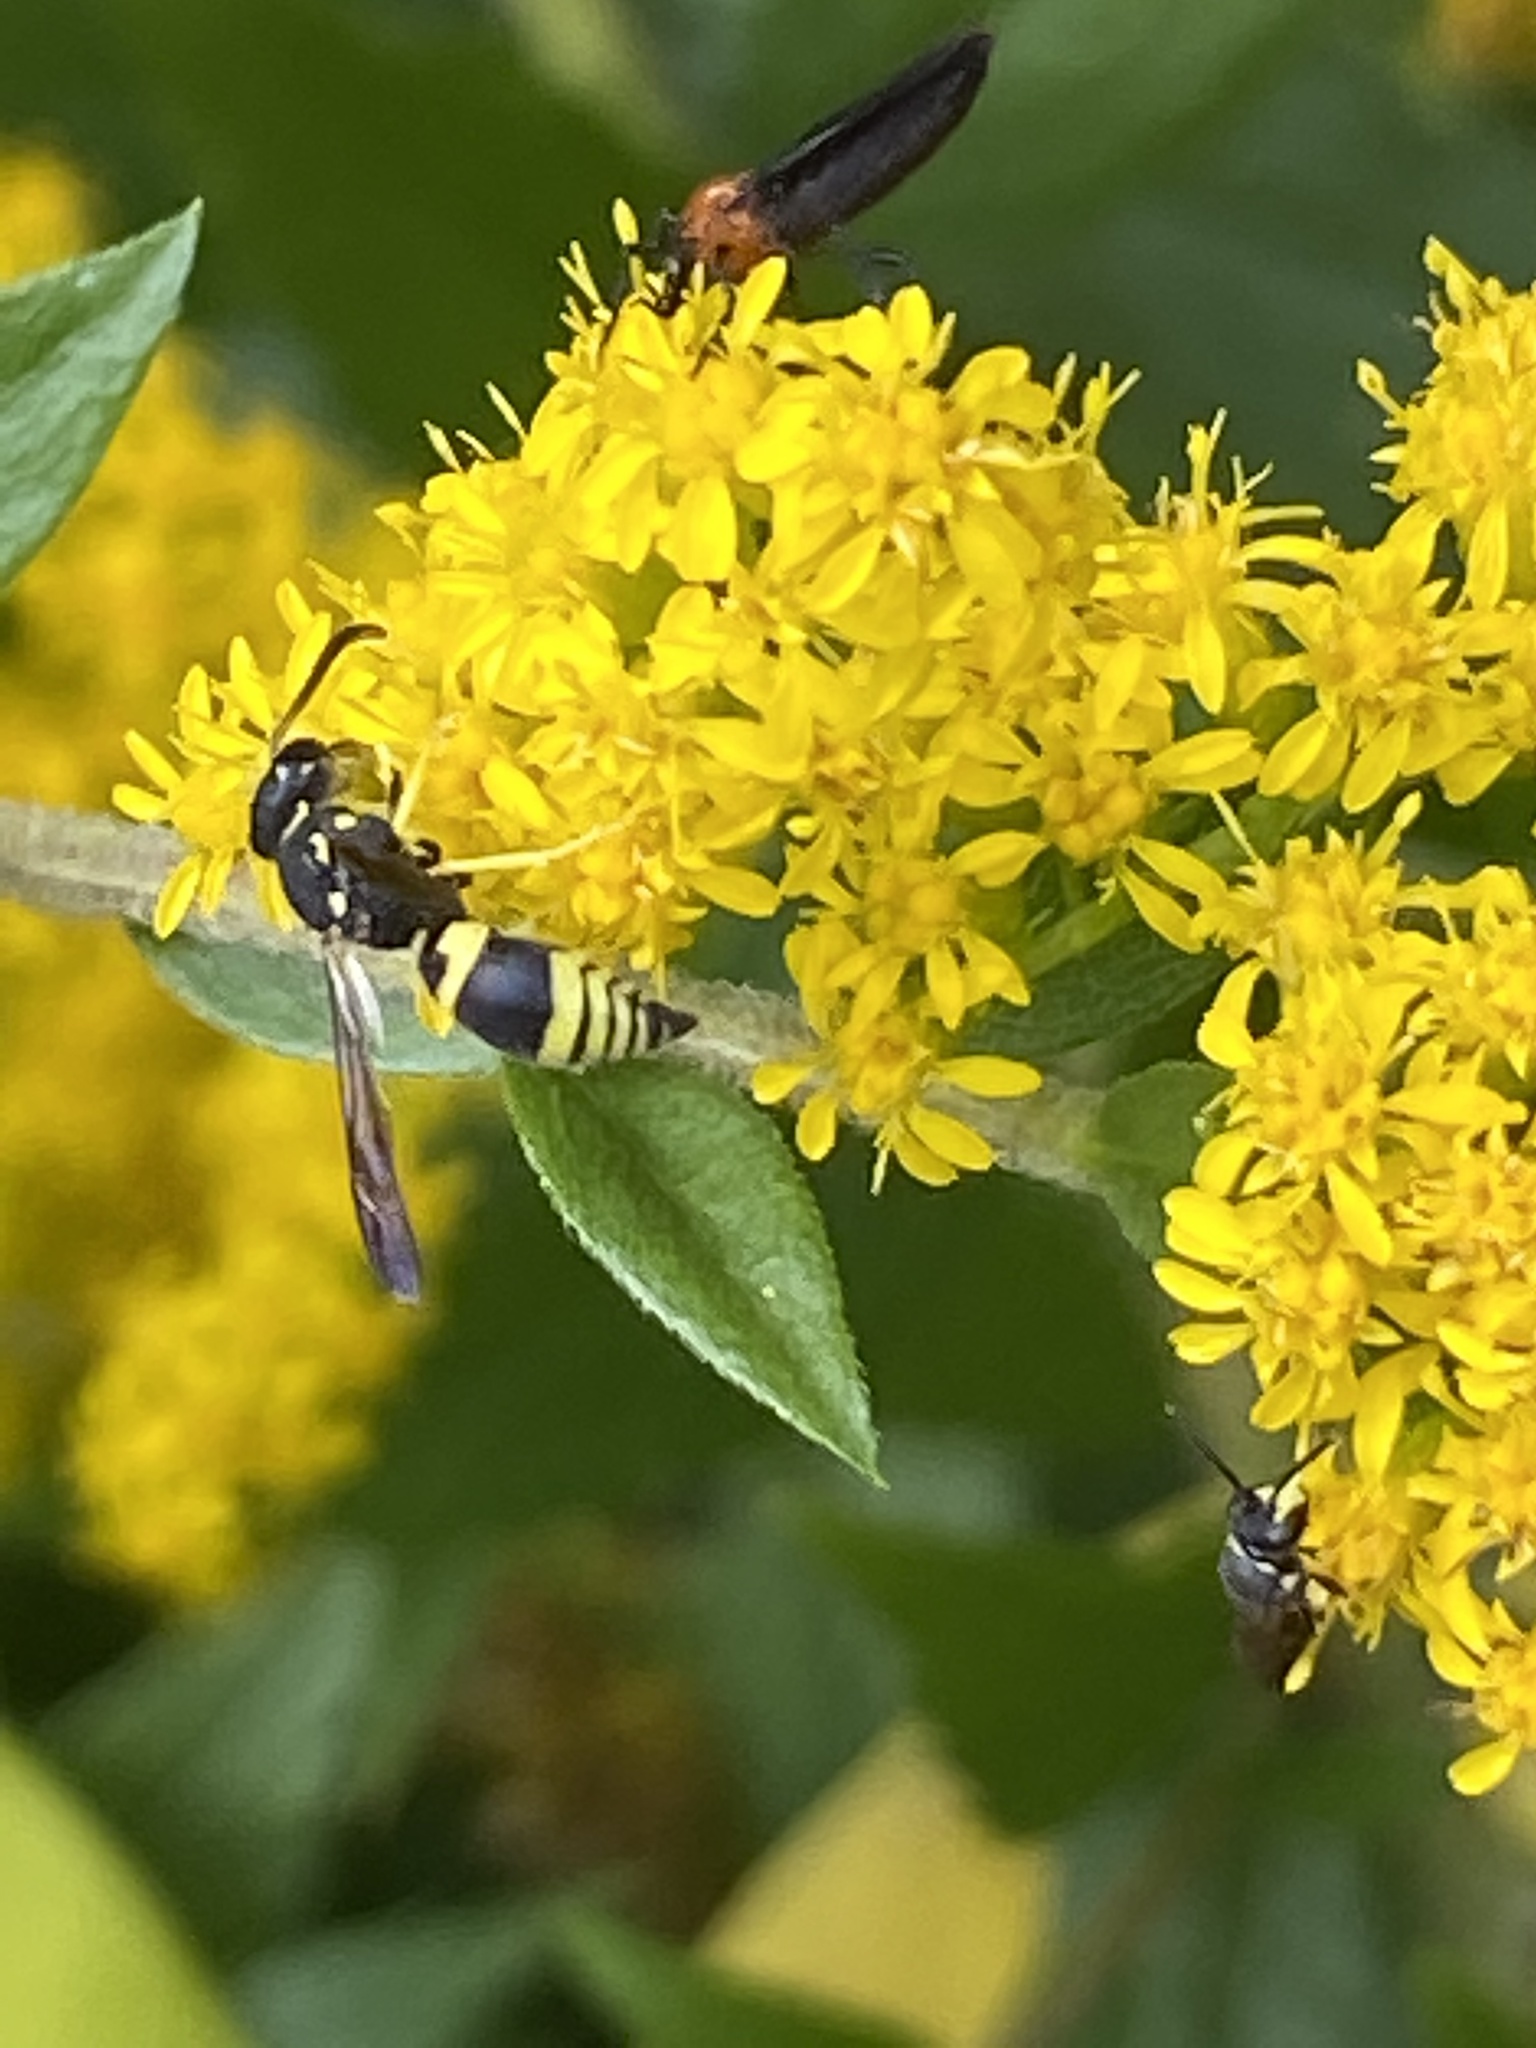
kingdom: Animalia
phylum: Arthropoda
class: Insecta
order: Hymenoptera
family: Vespidae
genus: Ancistrocerus
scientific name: Ancistrocerus gazella
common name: European tube wasp
